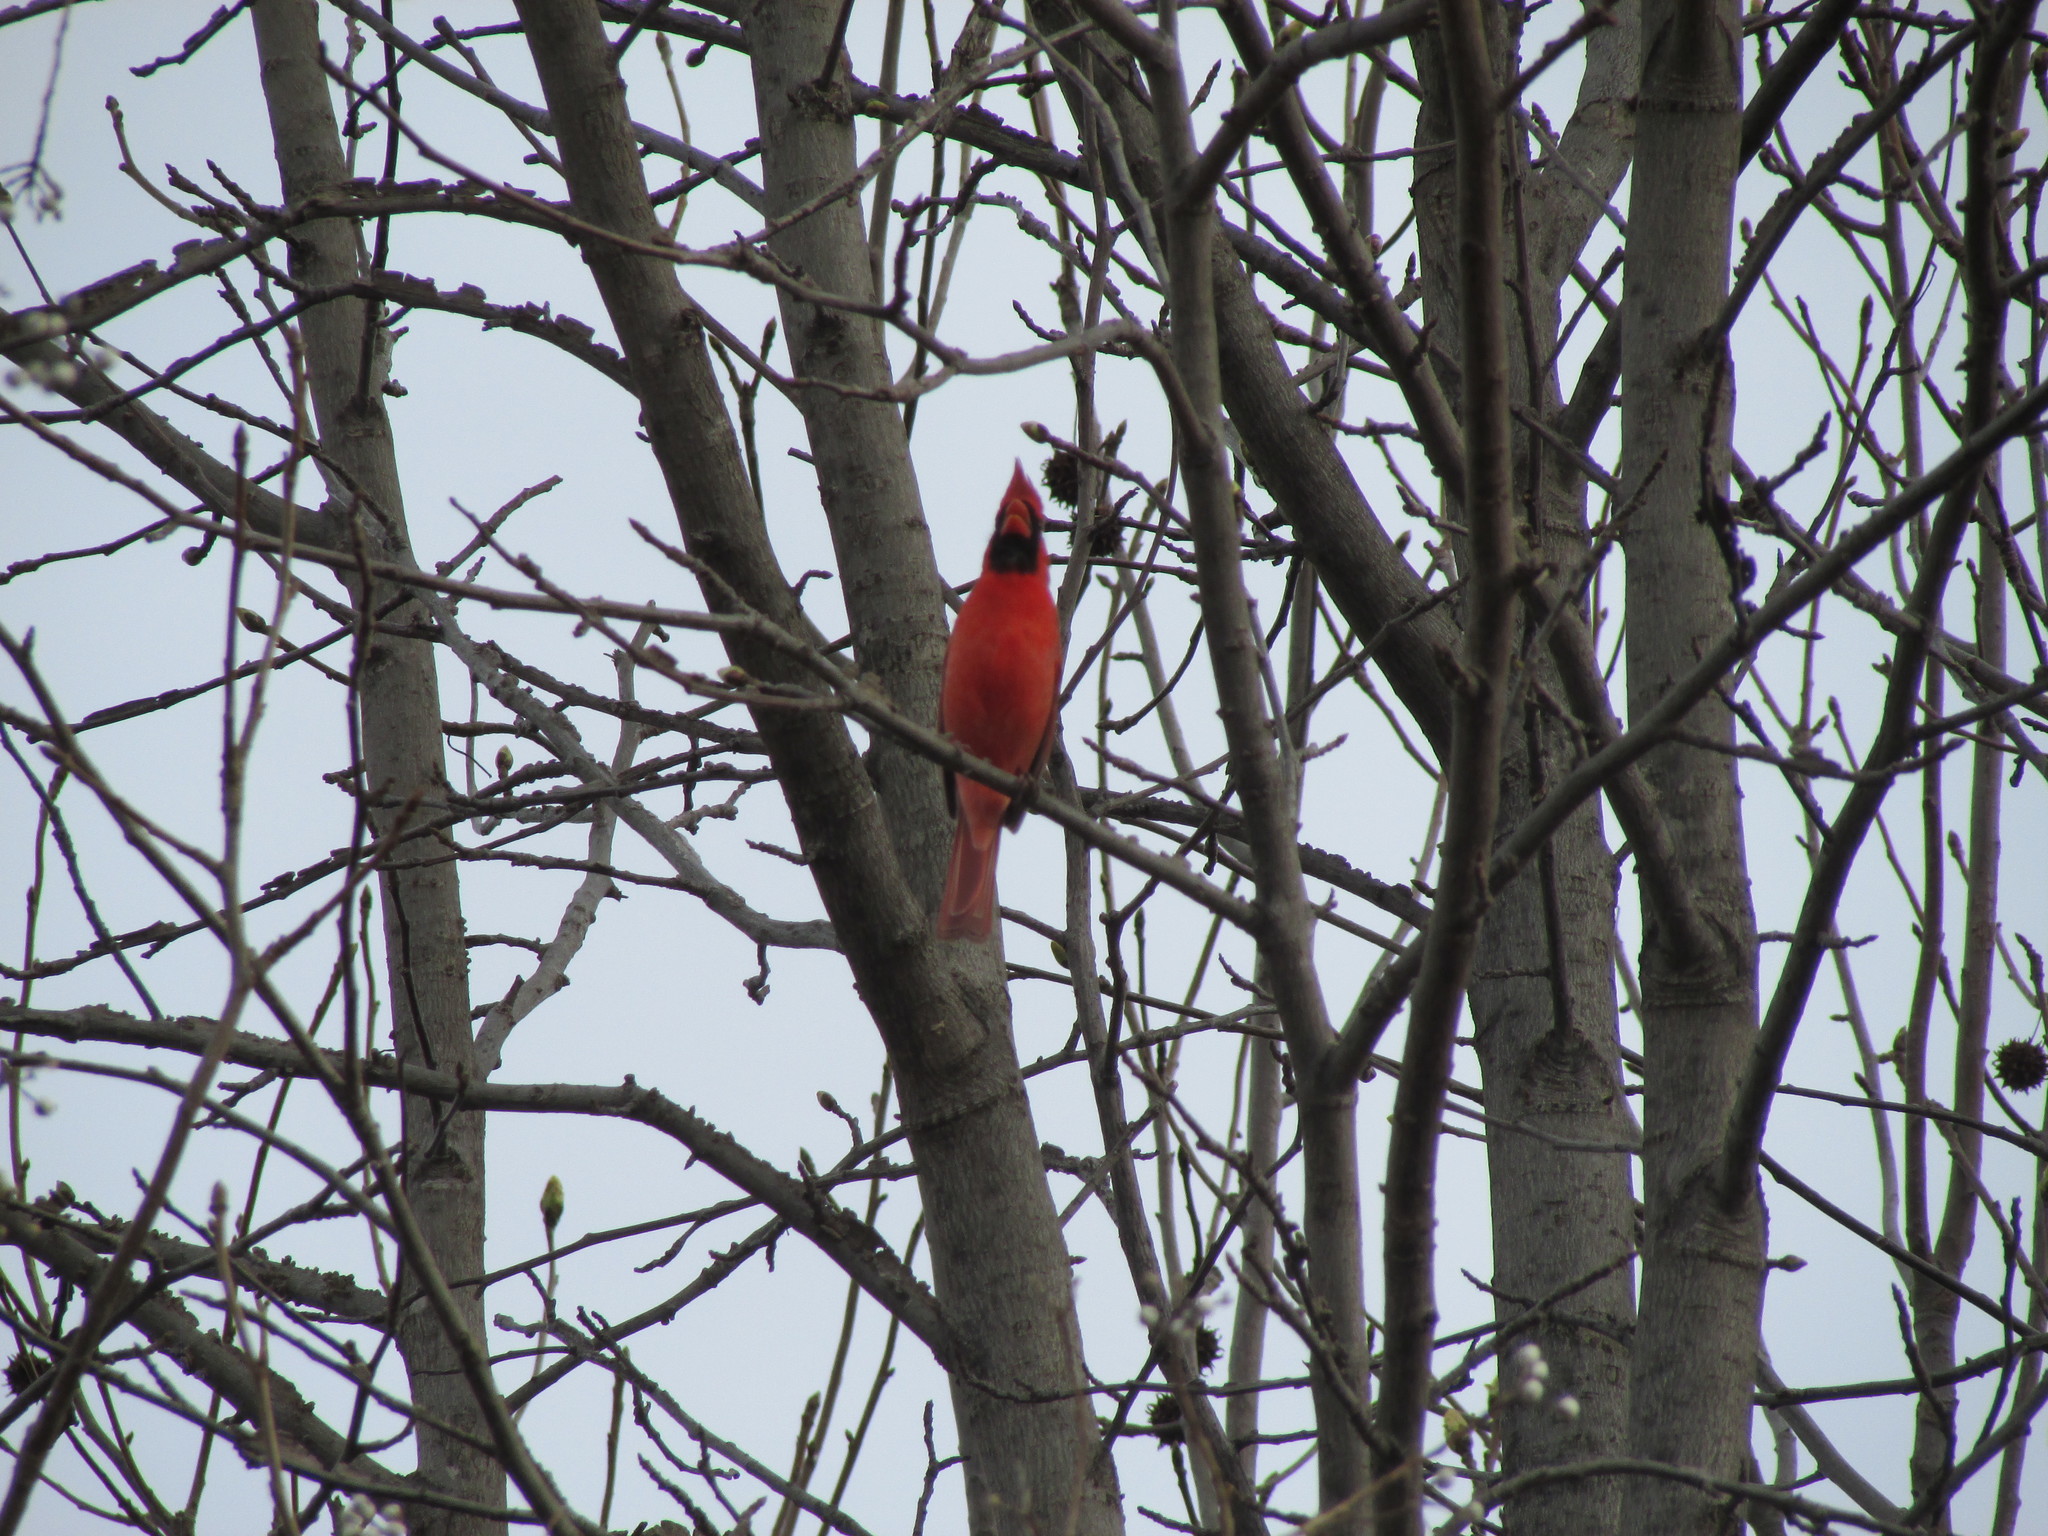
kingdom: Animalia
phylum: Chordata
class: Aves
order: Passeriformes
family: Cardinalidae
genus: Cardinalis
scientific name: Cardinalis cardinalis
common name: Northern cardinal
